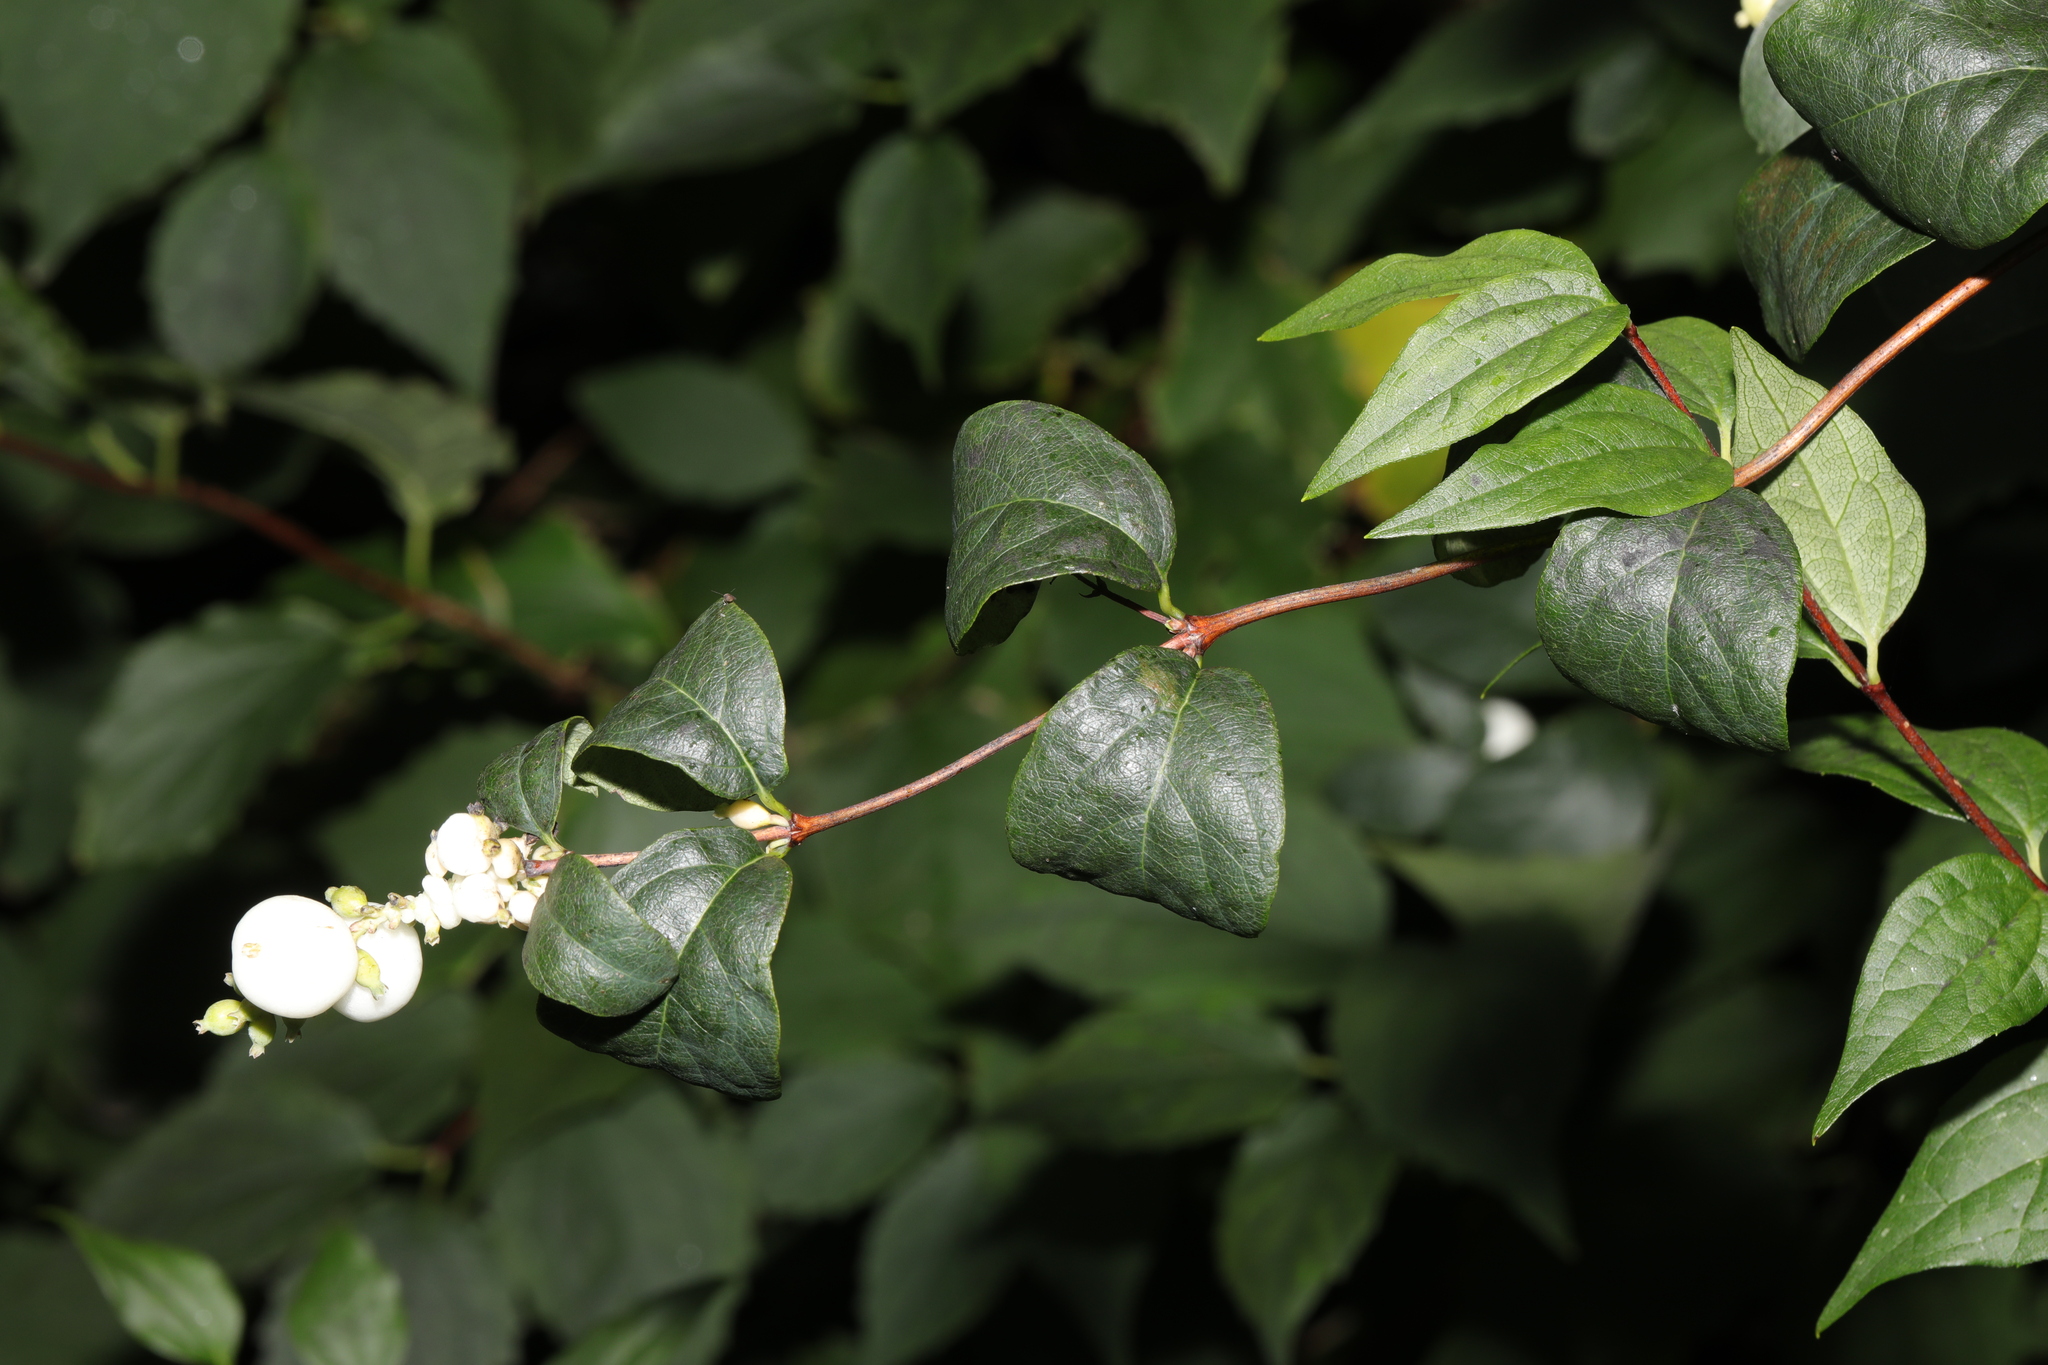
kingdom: Plantae
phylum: Tracheophyta
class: Magnoliopsida
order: Dipsacales
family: Caprifoliaceae
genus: Symphoricarpos
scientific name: Symphoricarpos albus
